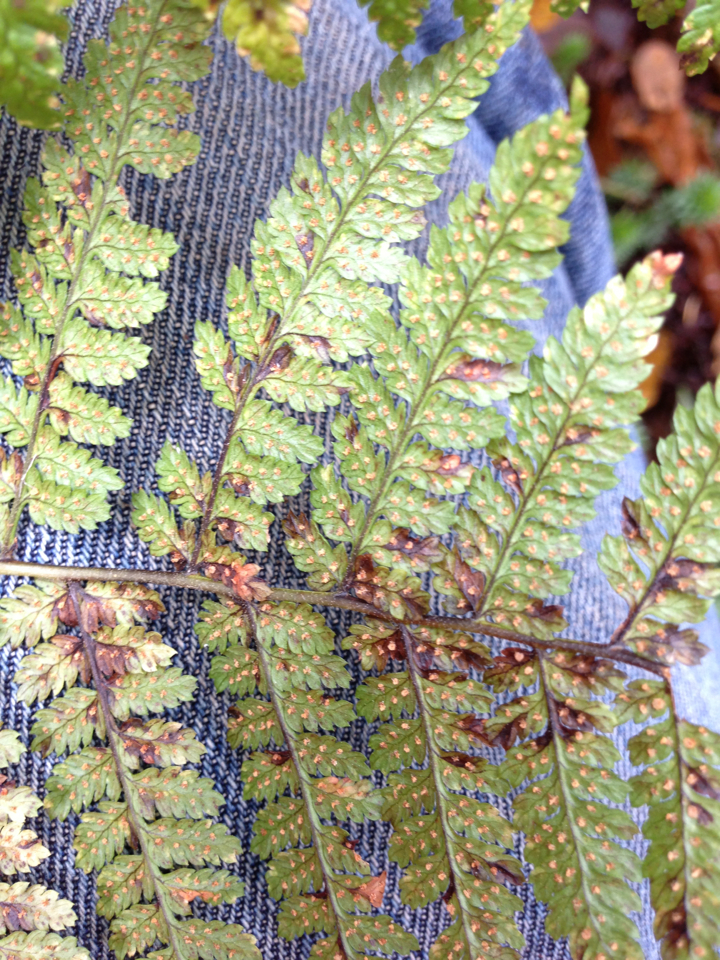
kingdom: Plantae
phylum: Tracheophyta
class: Polypodiopsida
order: Polypodiales
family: Dryopteridaceae
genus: Dryopteris
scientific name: Dryopteris intermedia
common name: Evergreen wood fern
